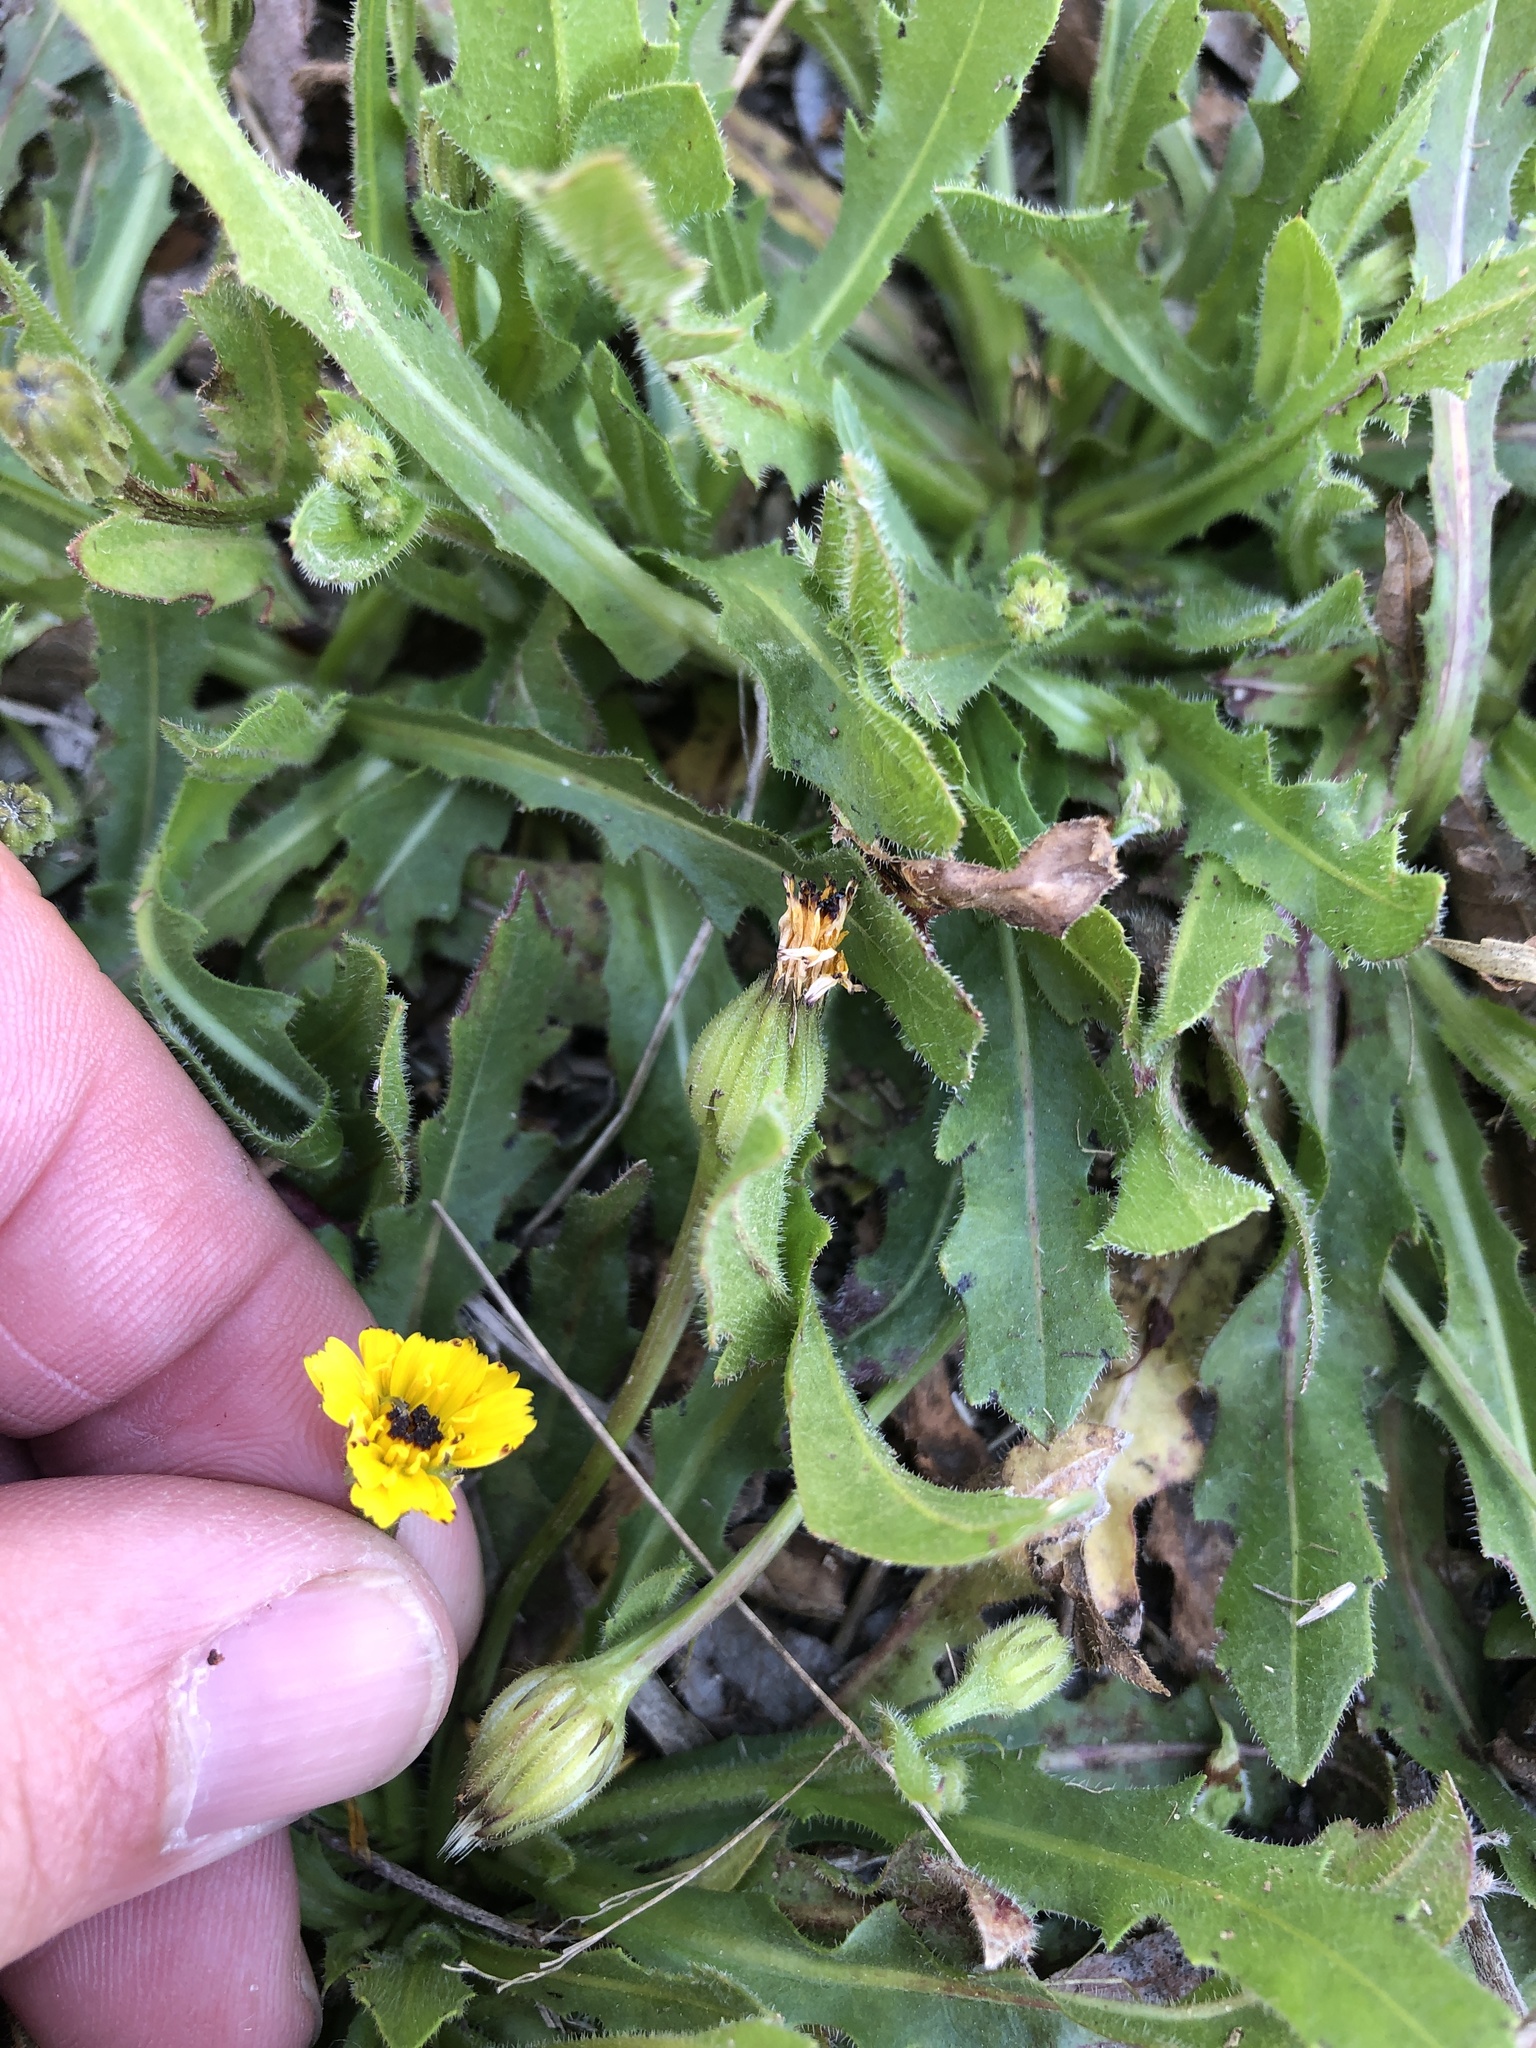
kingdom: Plantae
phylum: Tracheophyta
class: Magnoliopsida
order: Asterales
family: Asteraceae
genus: Hedypnois
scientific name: Hedypnois rhagadioloides
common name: Cretan weed
